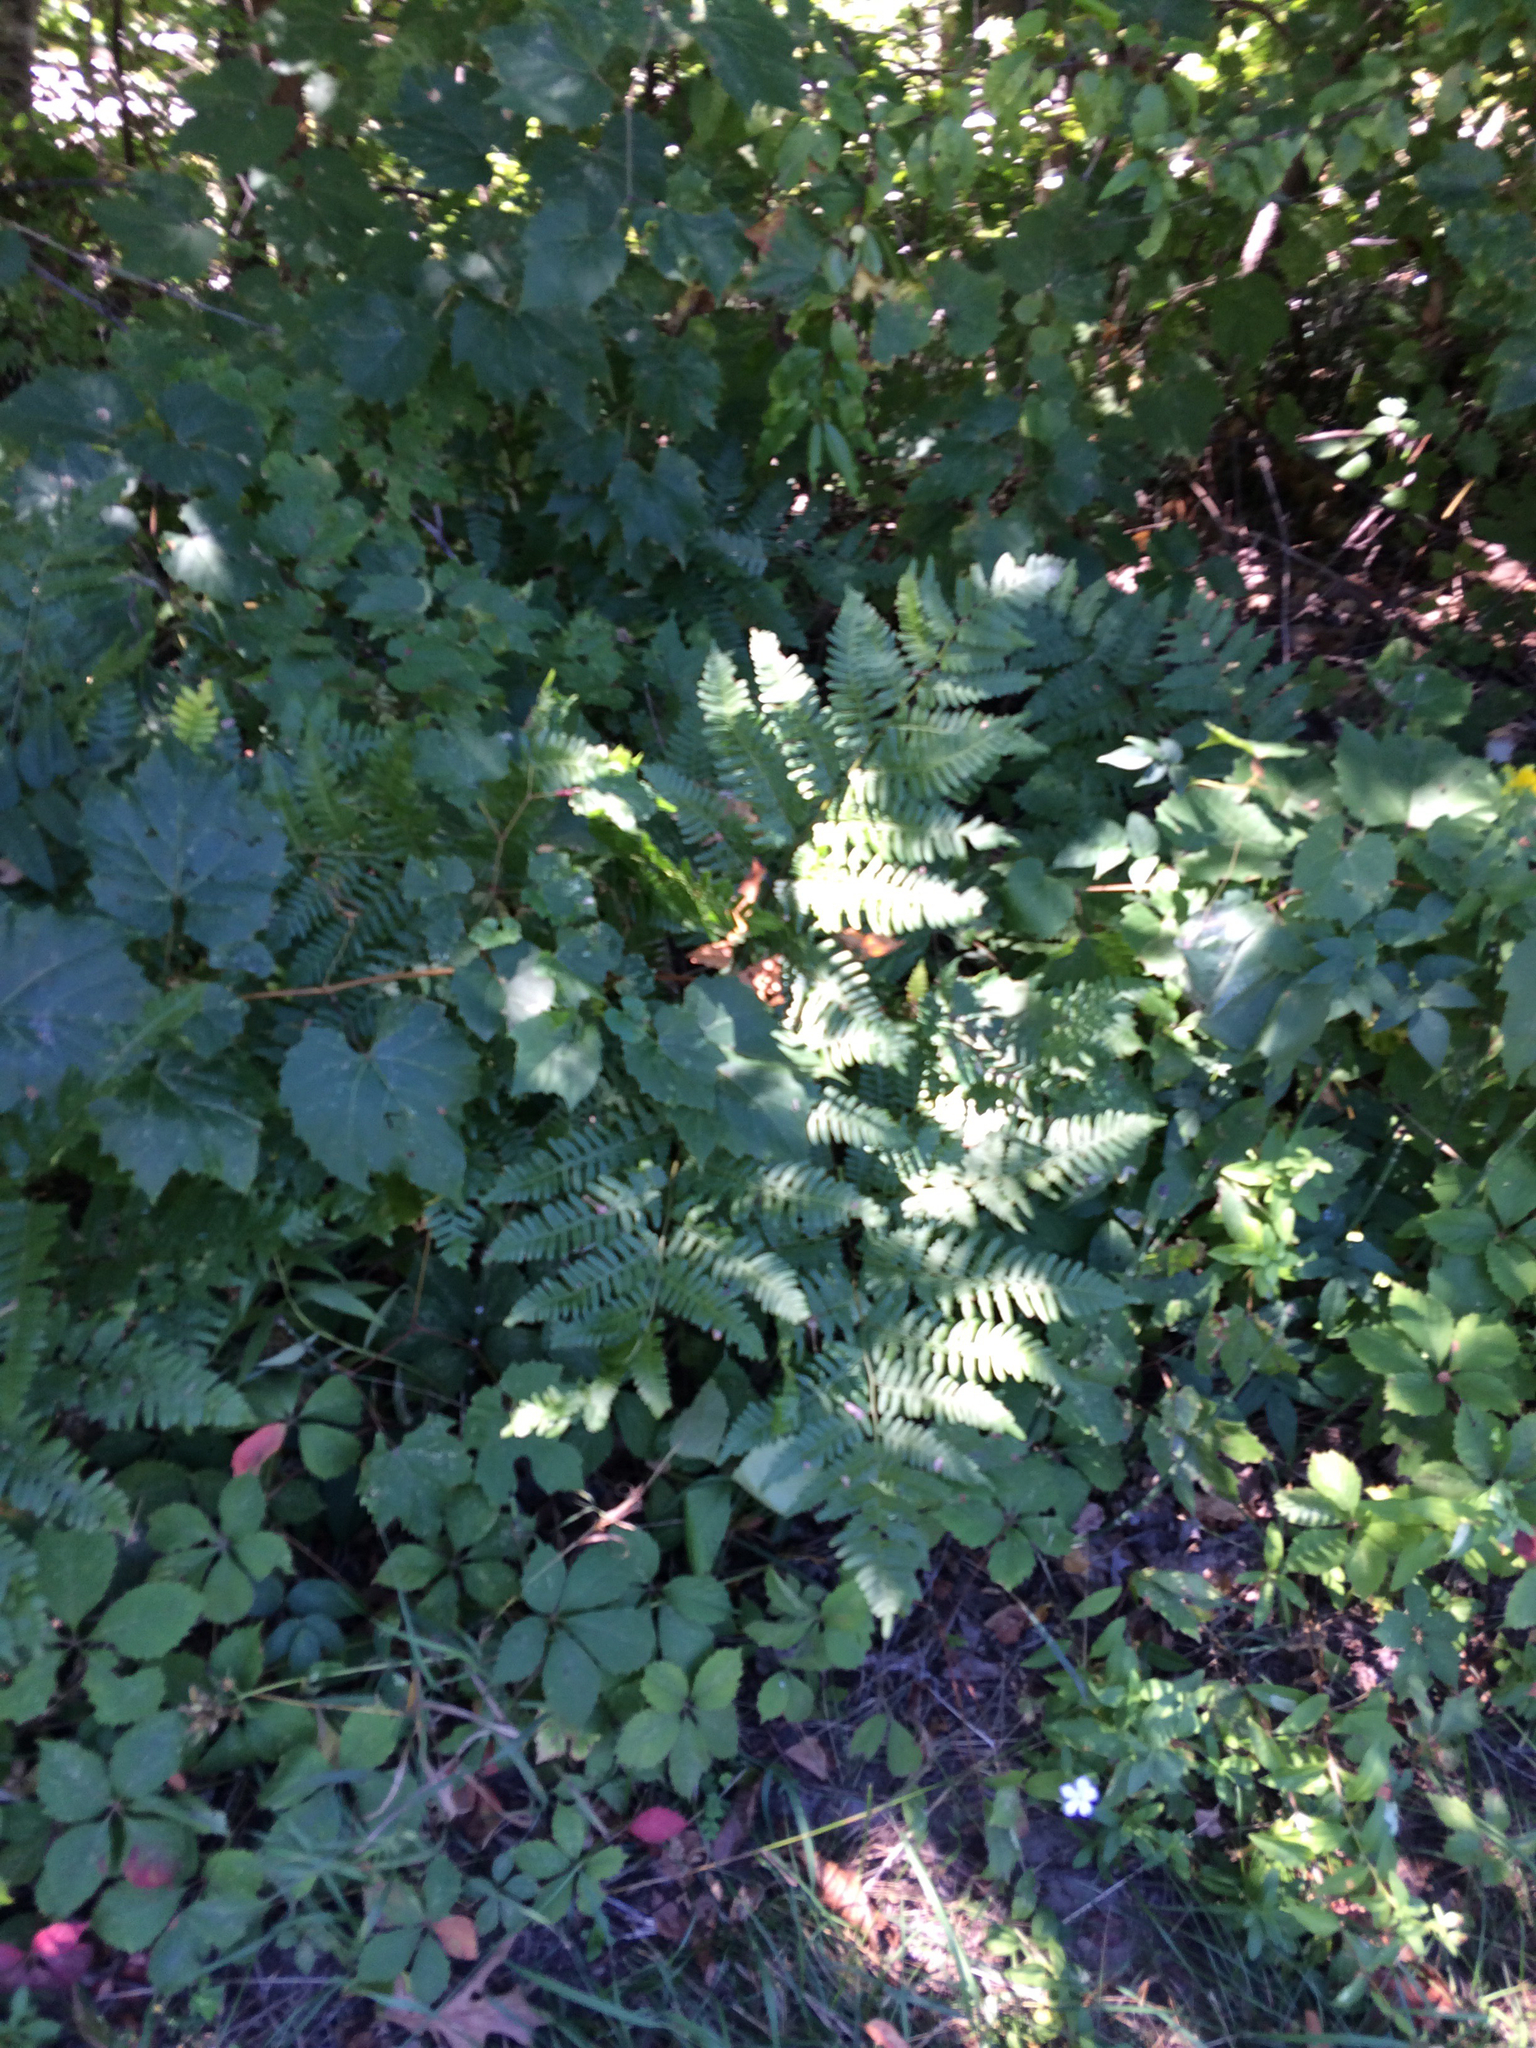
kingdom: Plantae
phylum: Tracheophyta
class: Polypodiopsida
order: Polypodiales
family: Dennstaedtiaceae
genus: Pteridium
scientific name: Pteridium aquilinum
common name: Bracken
